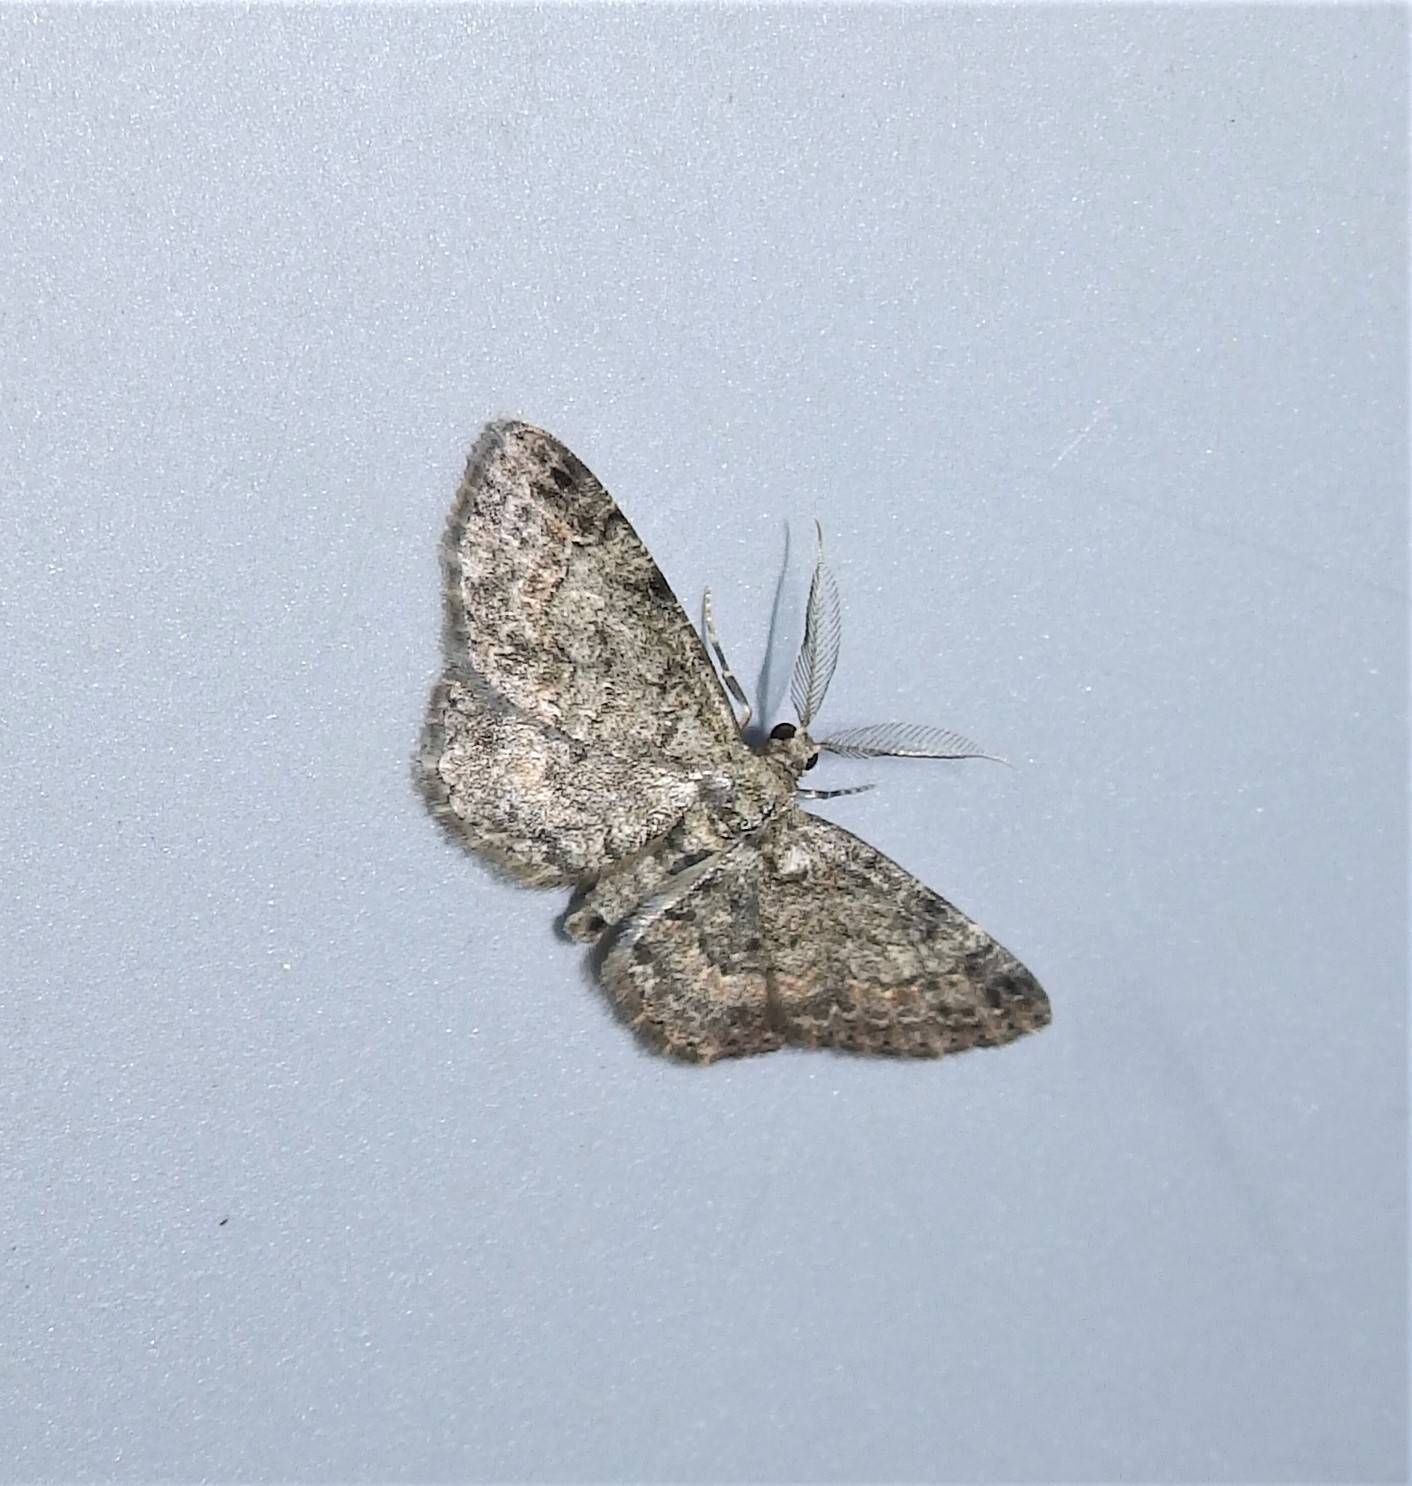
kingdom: Animalia
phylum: Arthropoda
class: Insecta
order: Lepidoptera
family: Geometridae
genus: Glenoides
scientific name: Glenoides texanaria
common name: Texas gray
